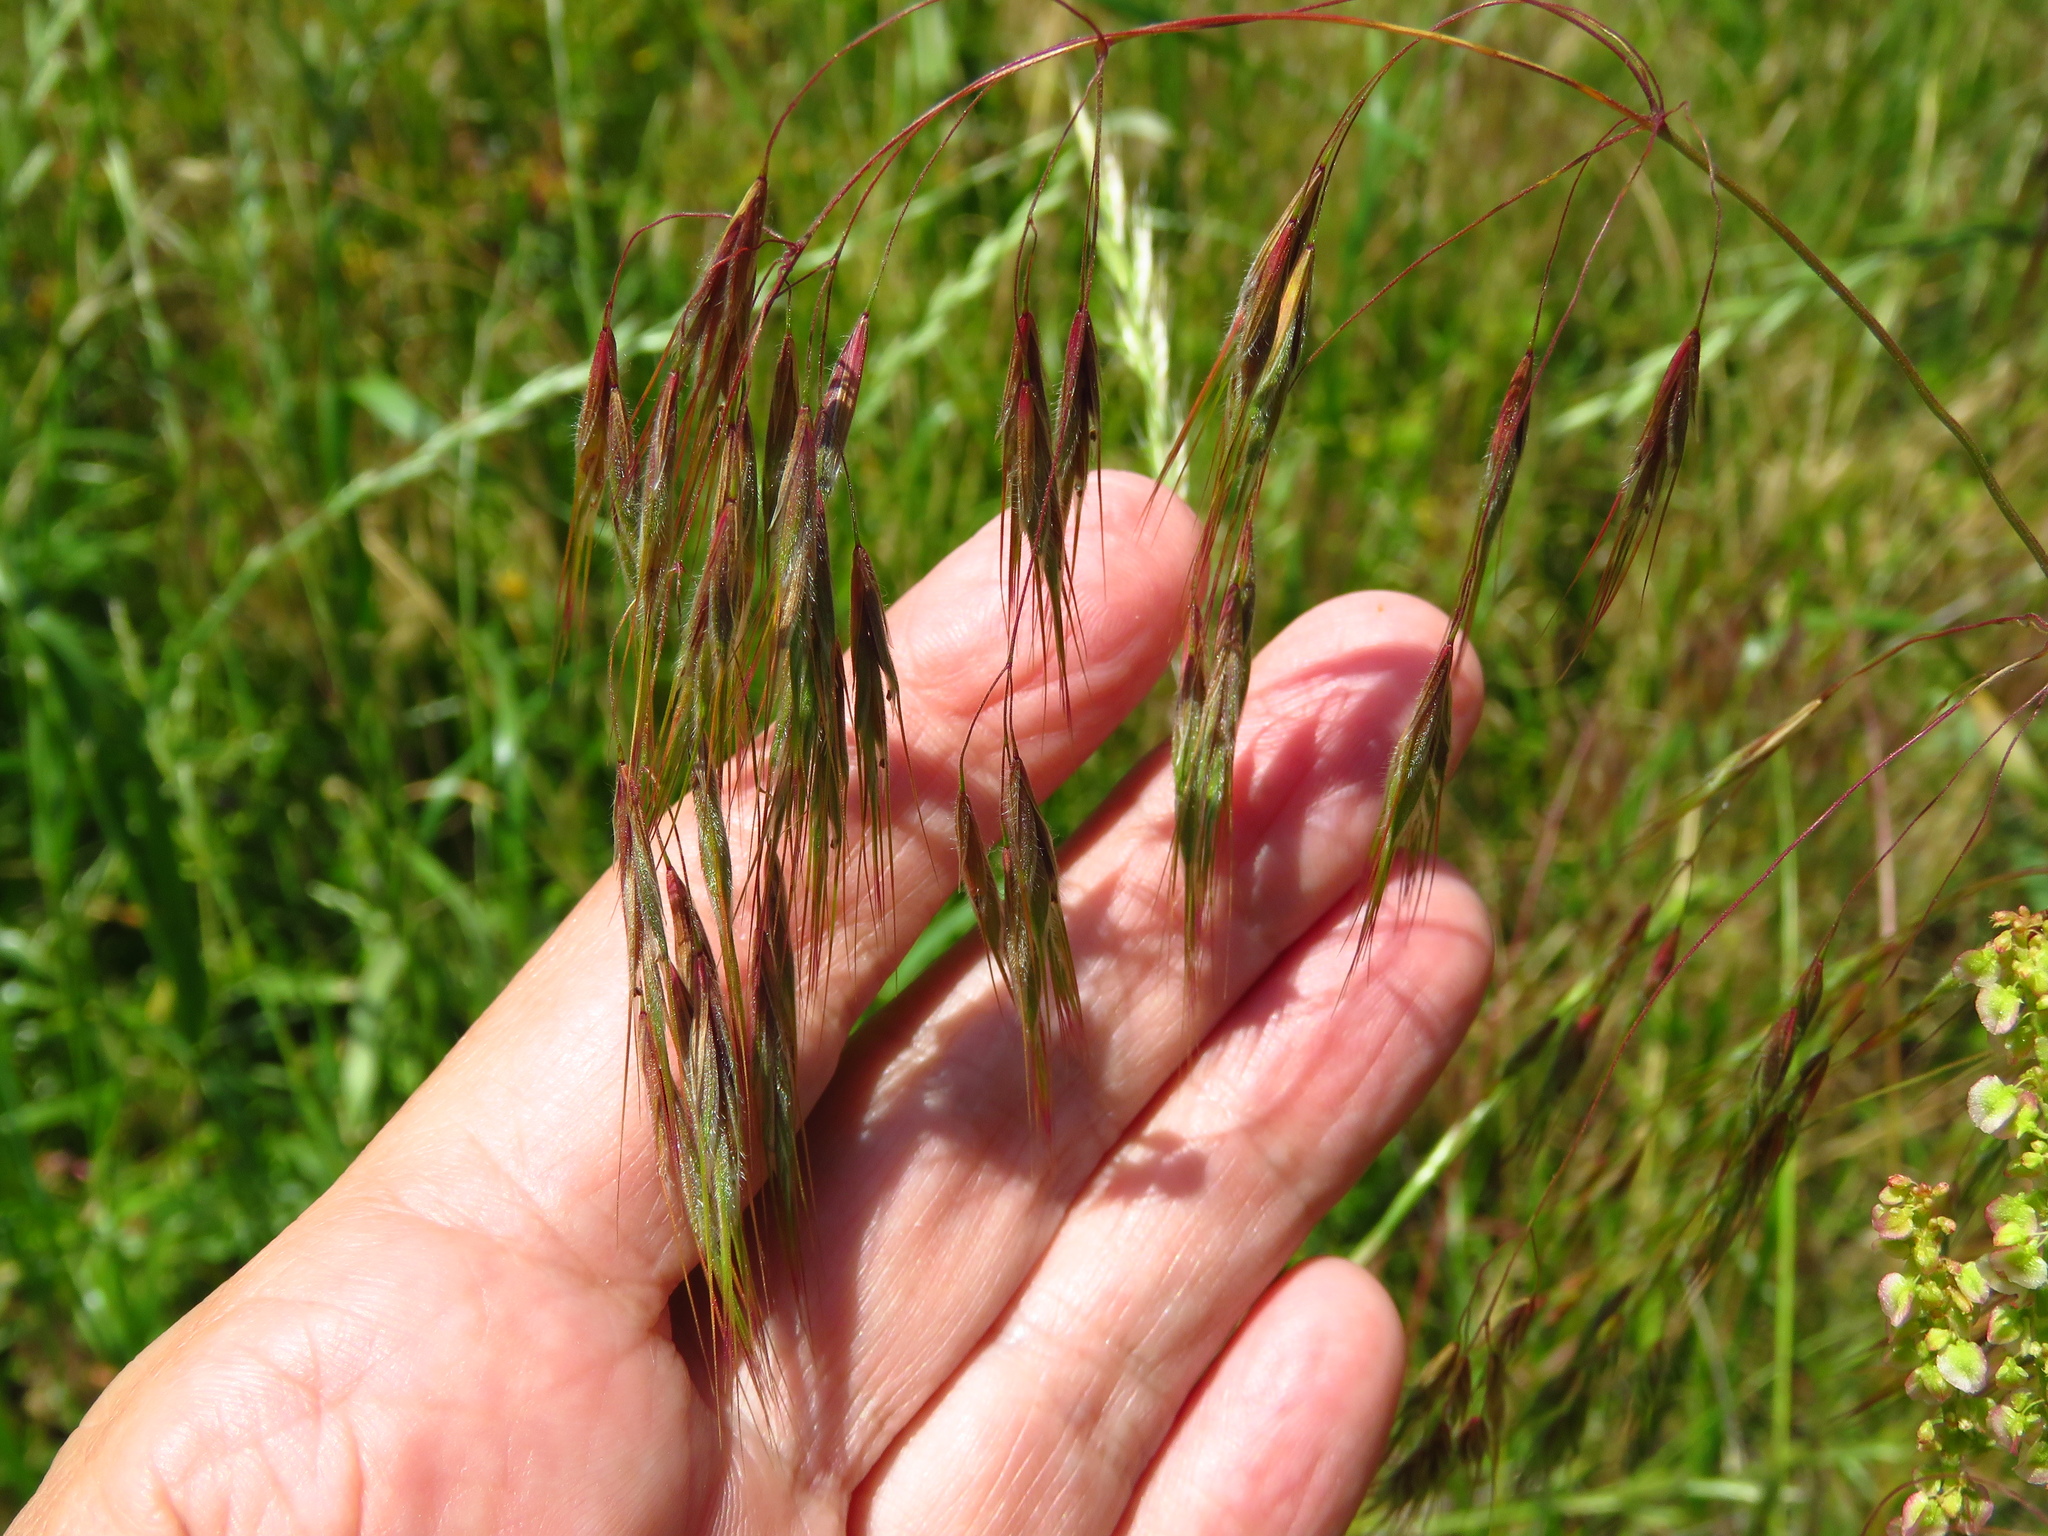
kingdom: Plantae
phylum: Tracheophyta
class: Liliopsida
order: Poales
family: Poaceae
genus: Bromus
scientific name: Bromus tectorum
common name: Cheatgrass
